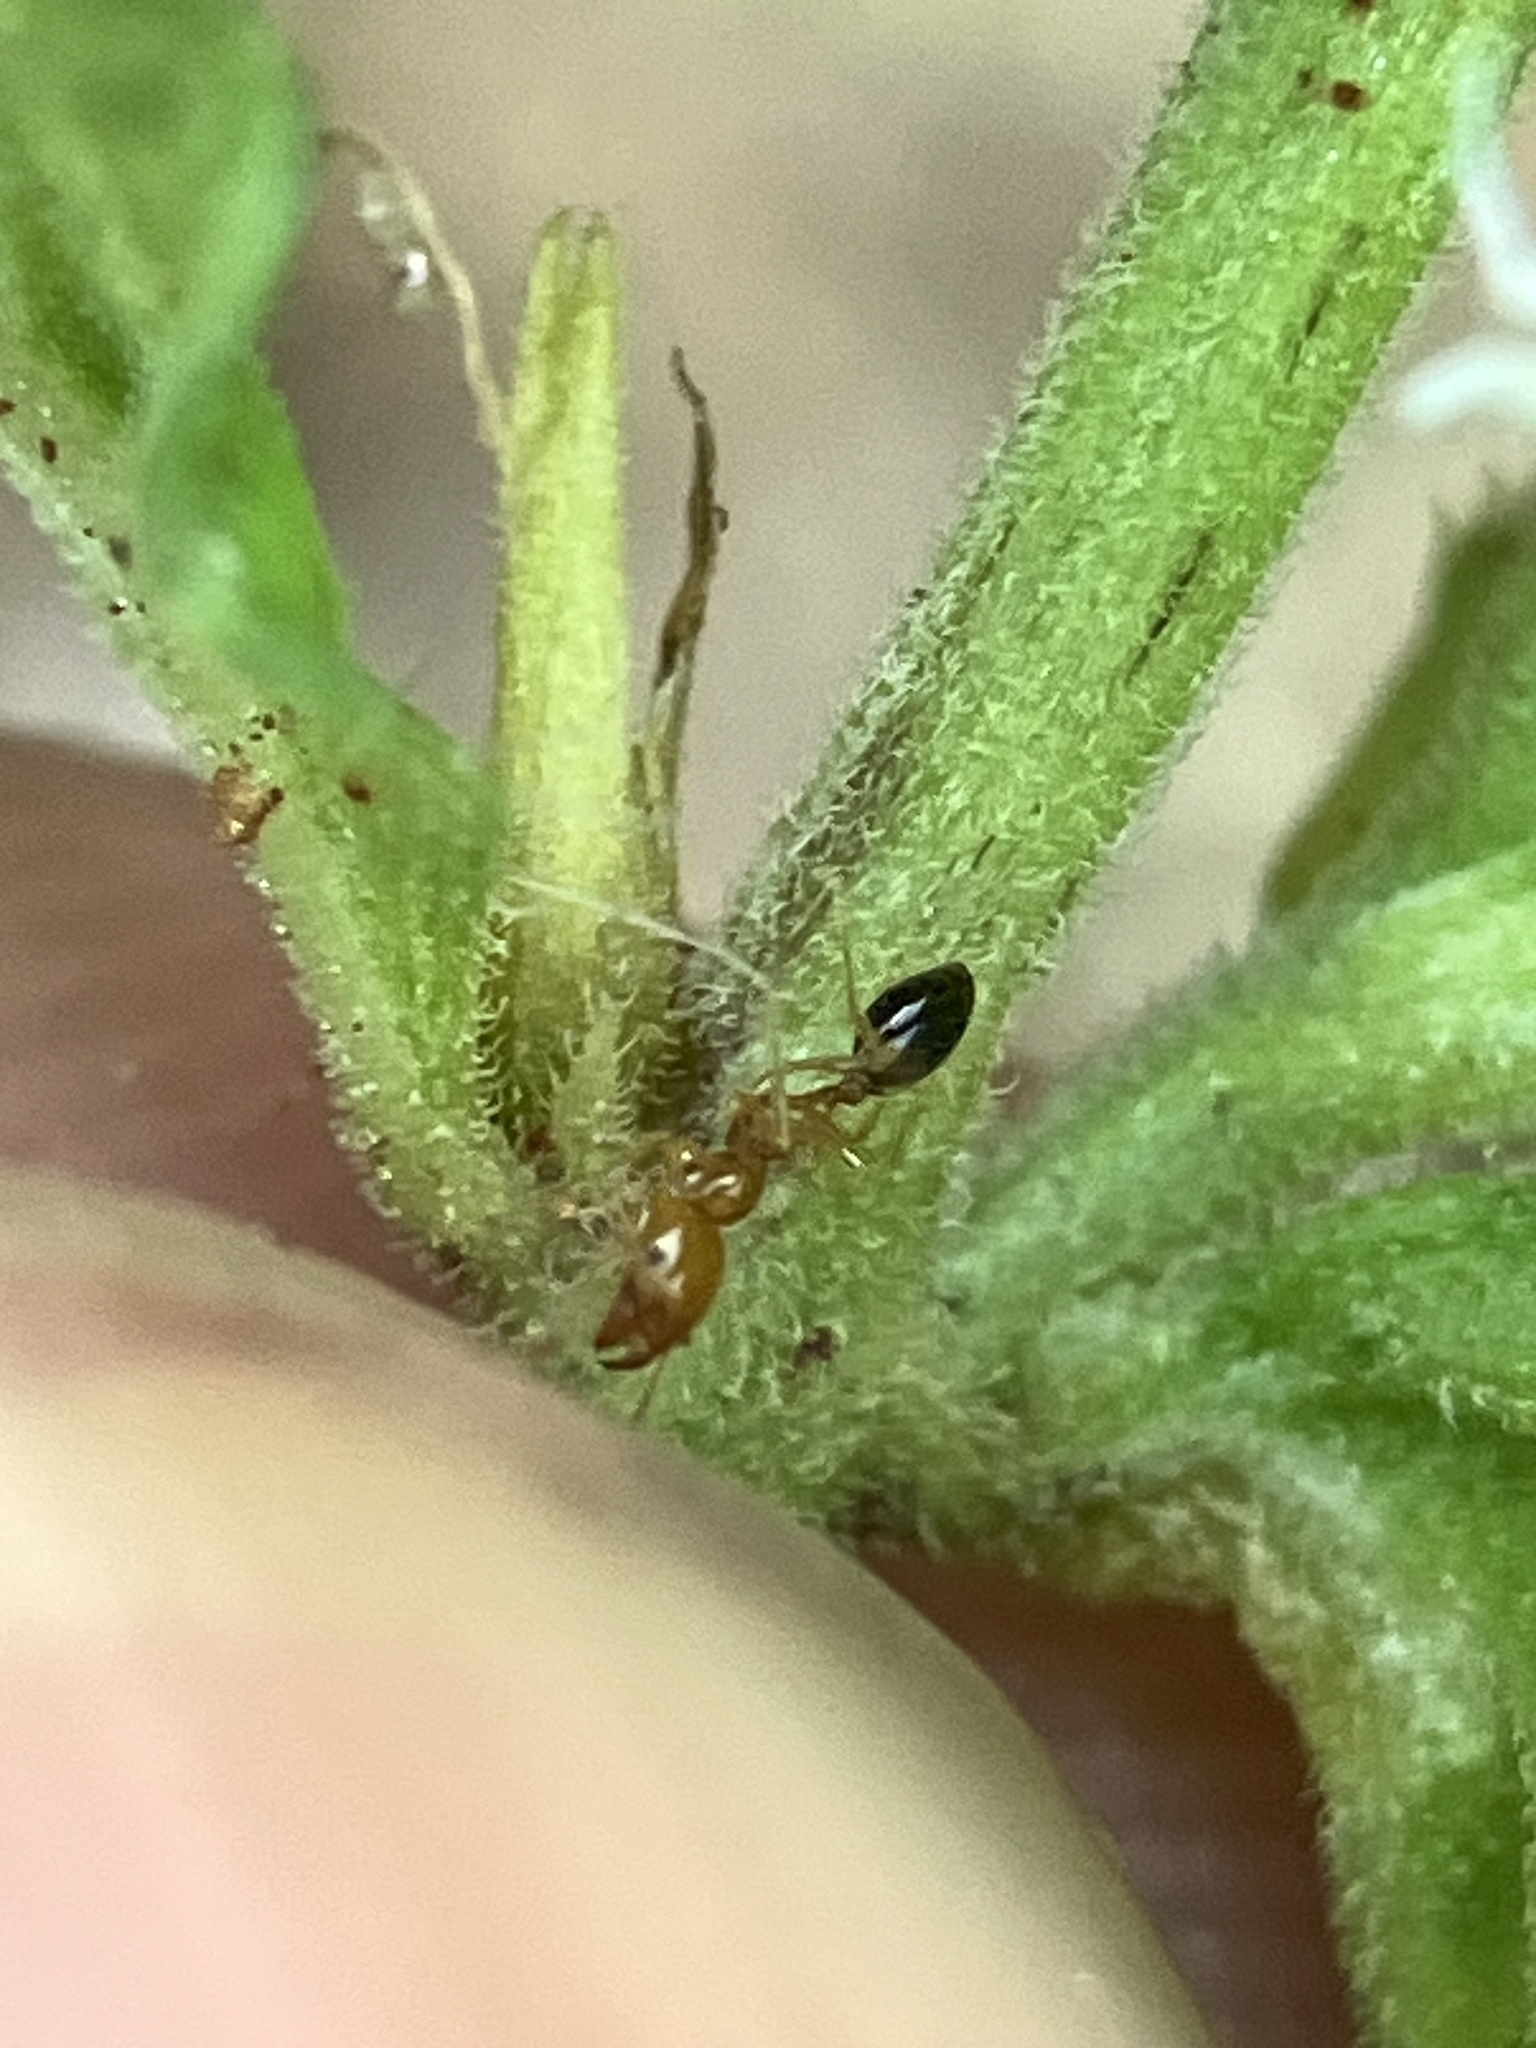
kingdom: Animalia
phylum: Arthropoda
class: Insecta
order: Hymenoptera
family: Formicidae
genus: Monomorium
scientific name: Monomorium destructor
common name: Destructive trailing ant
